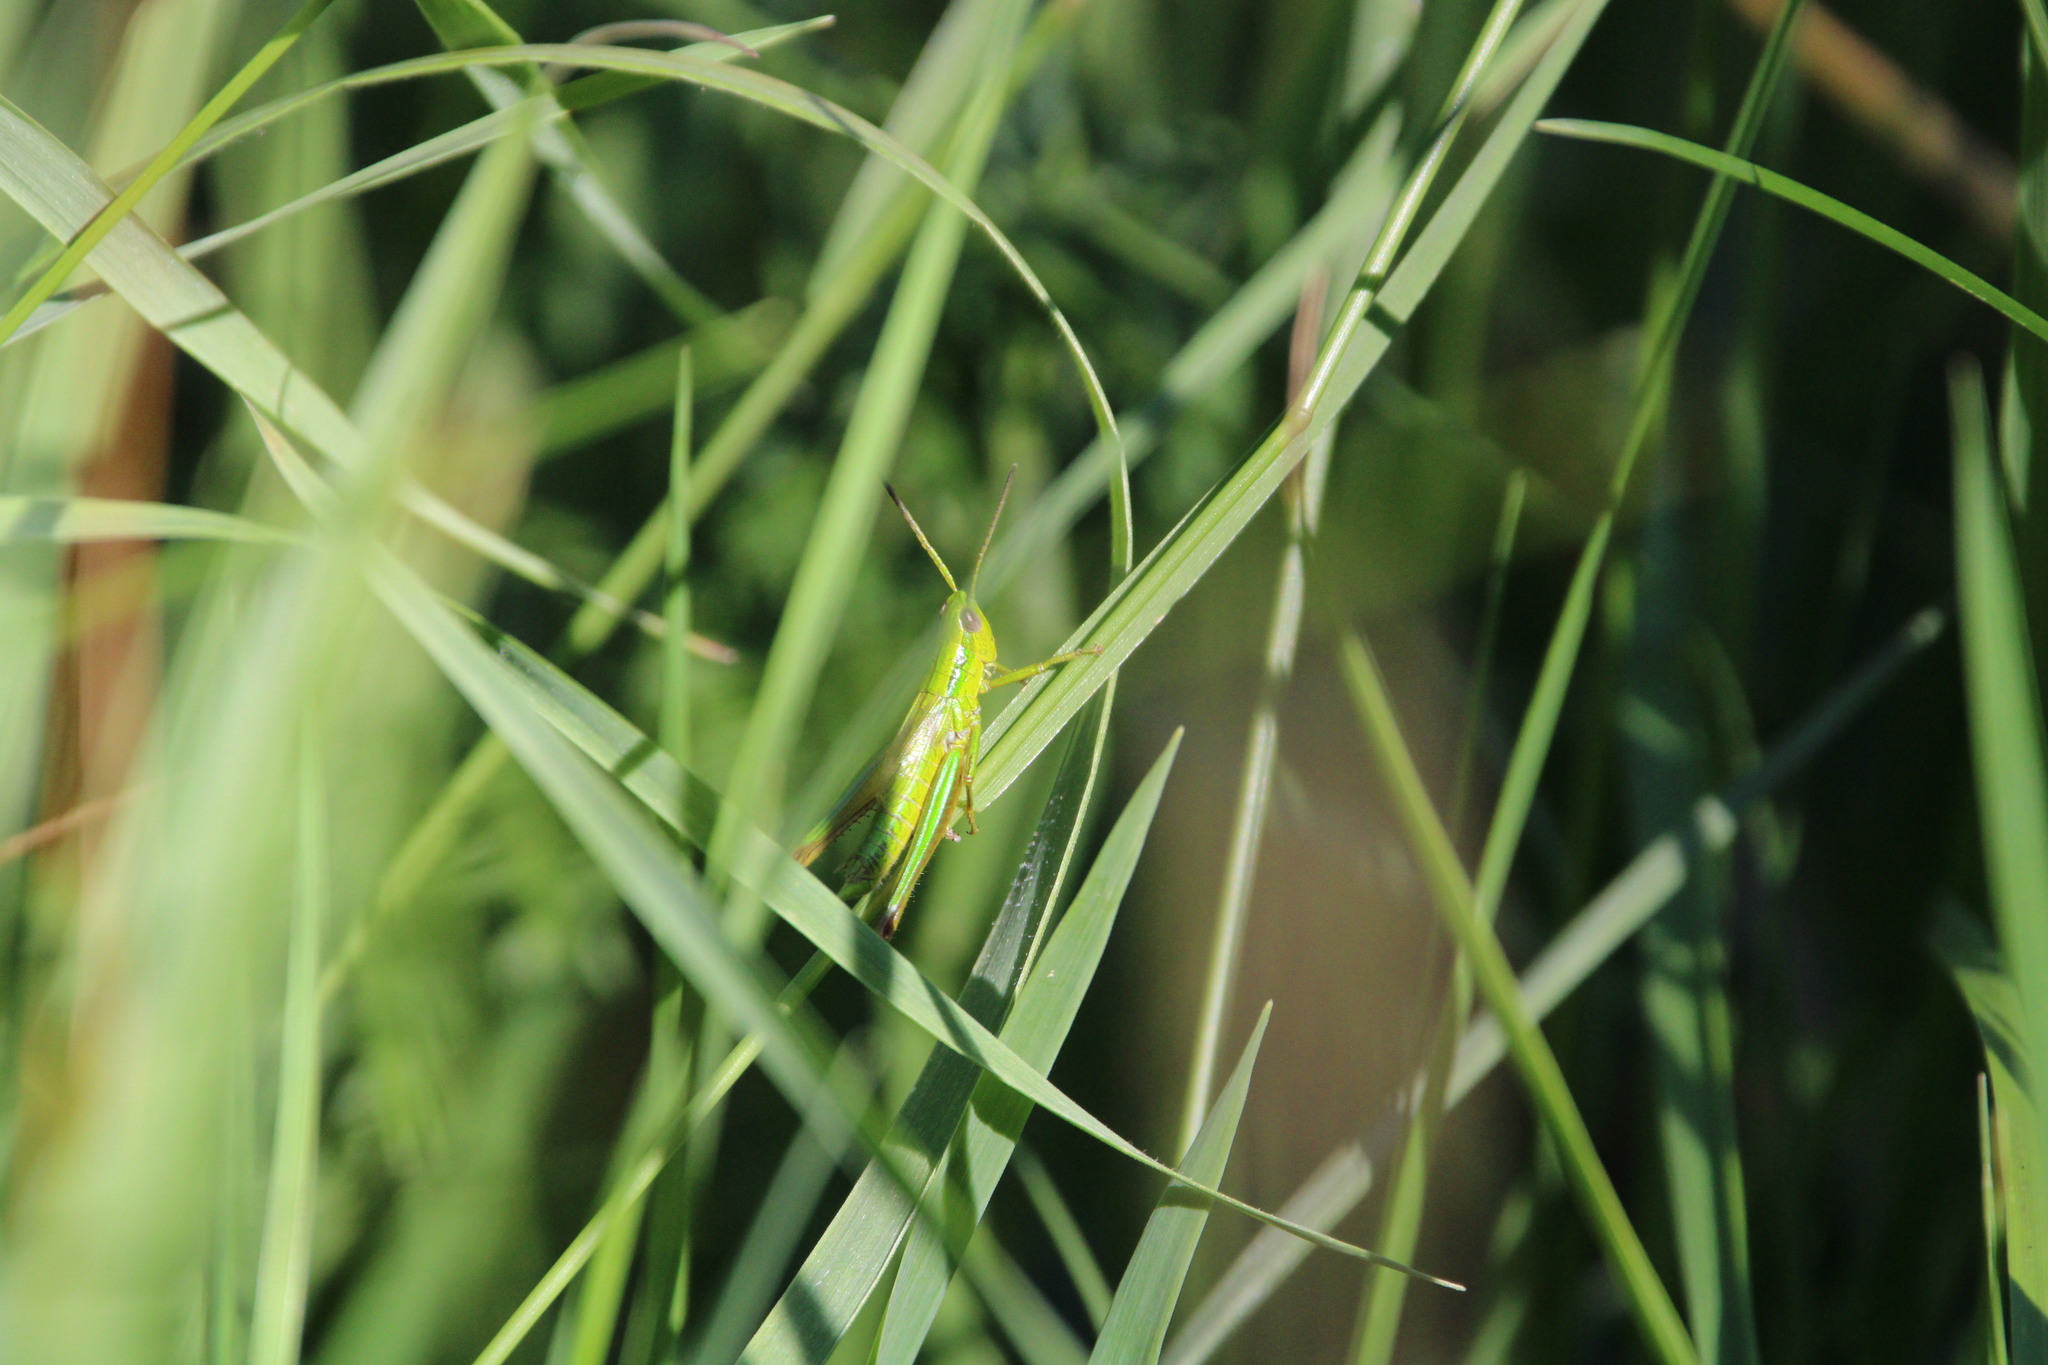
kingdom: Animalia
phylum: Arthropoda
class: Insecta
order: Orthoptera
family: Acrididae
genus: Euthystira
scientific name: Euthystira brachyptera
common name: Small gold grasshopper
